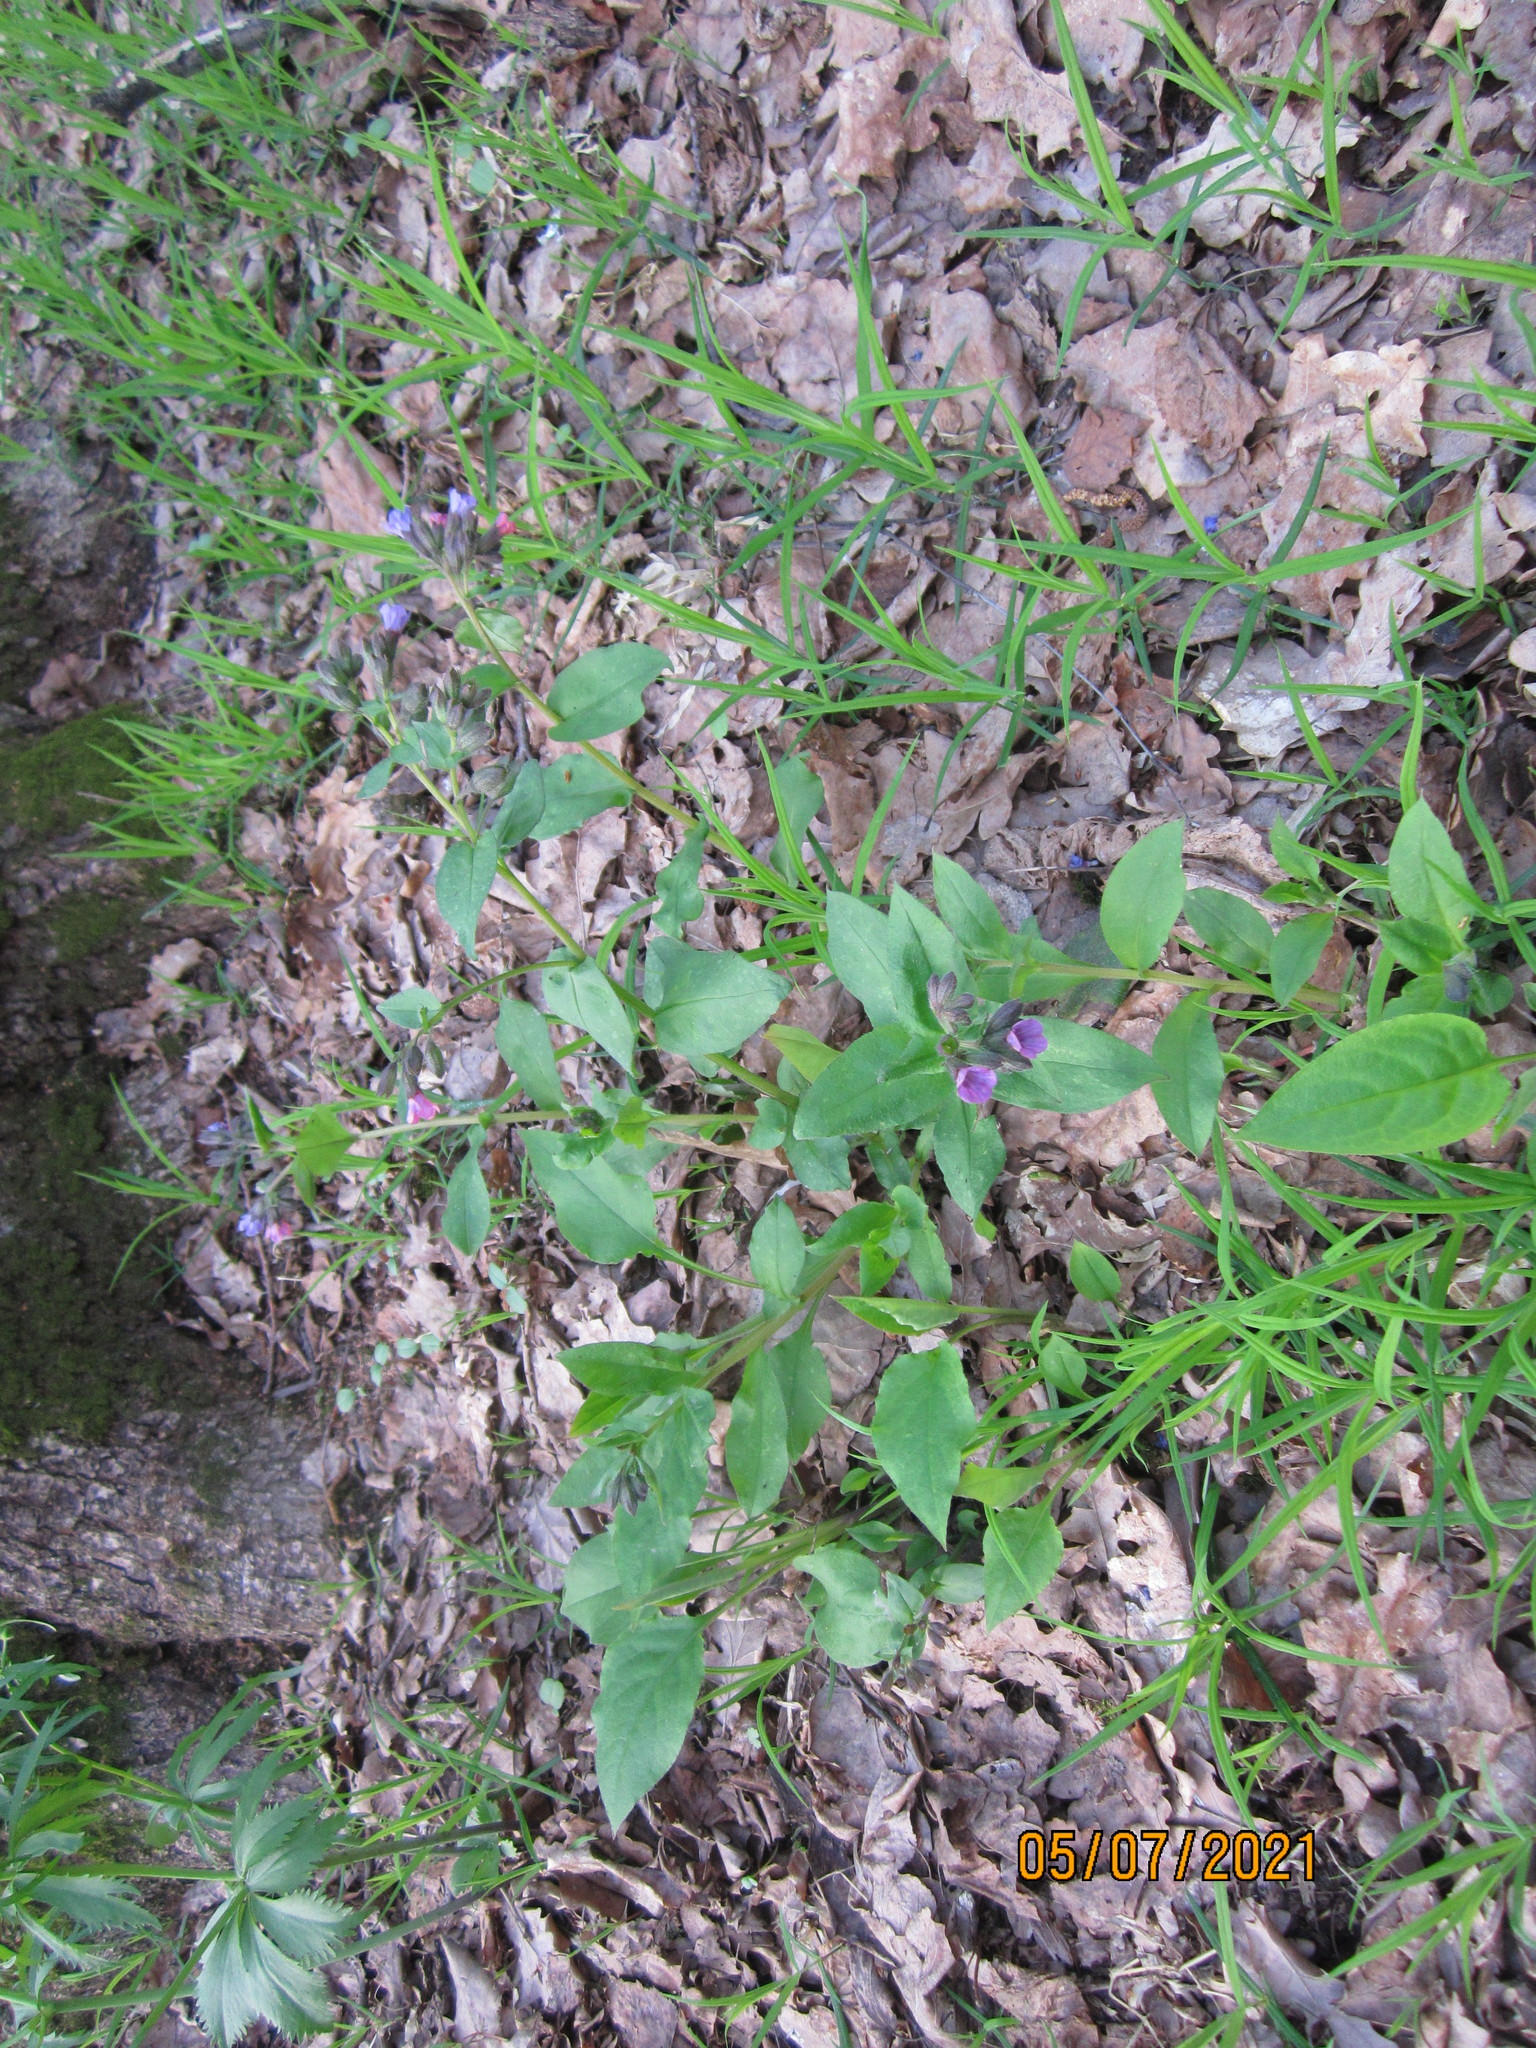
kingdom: Plantae
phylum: Tracheophyta
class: Magnoliopsida
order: Boraginales
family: Boraginaceae
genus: Pulmonaria
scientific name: Pulmonaria obscura
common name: Suffolk lungwort
